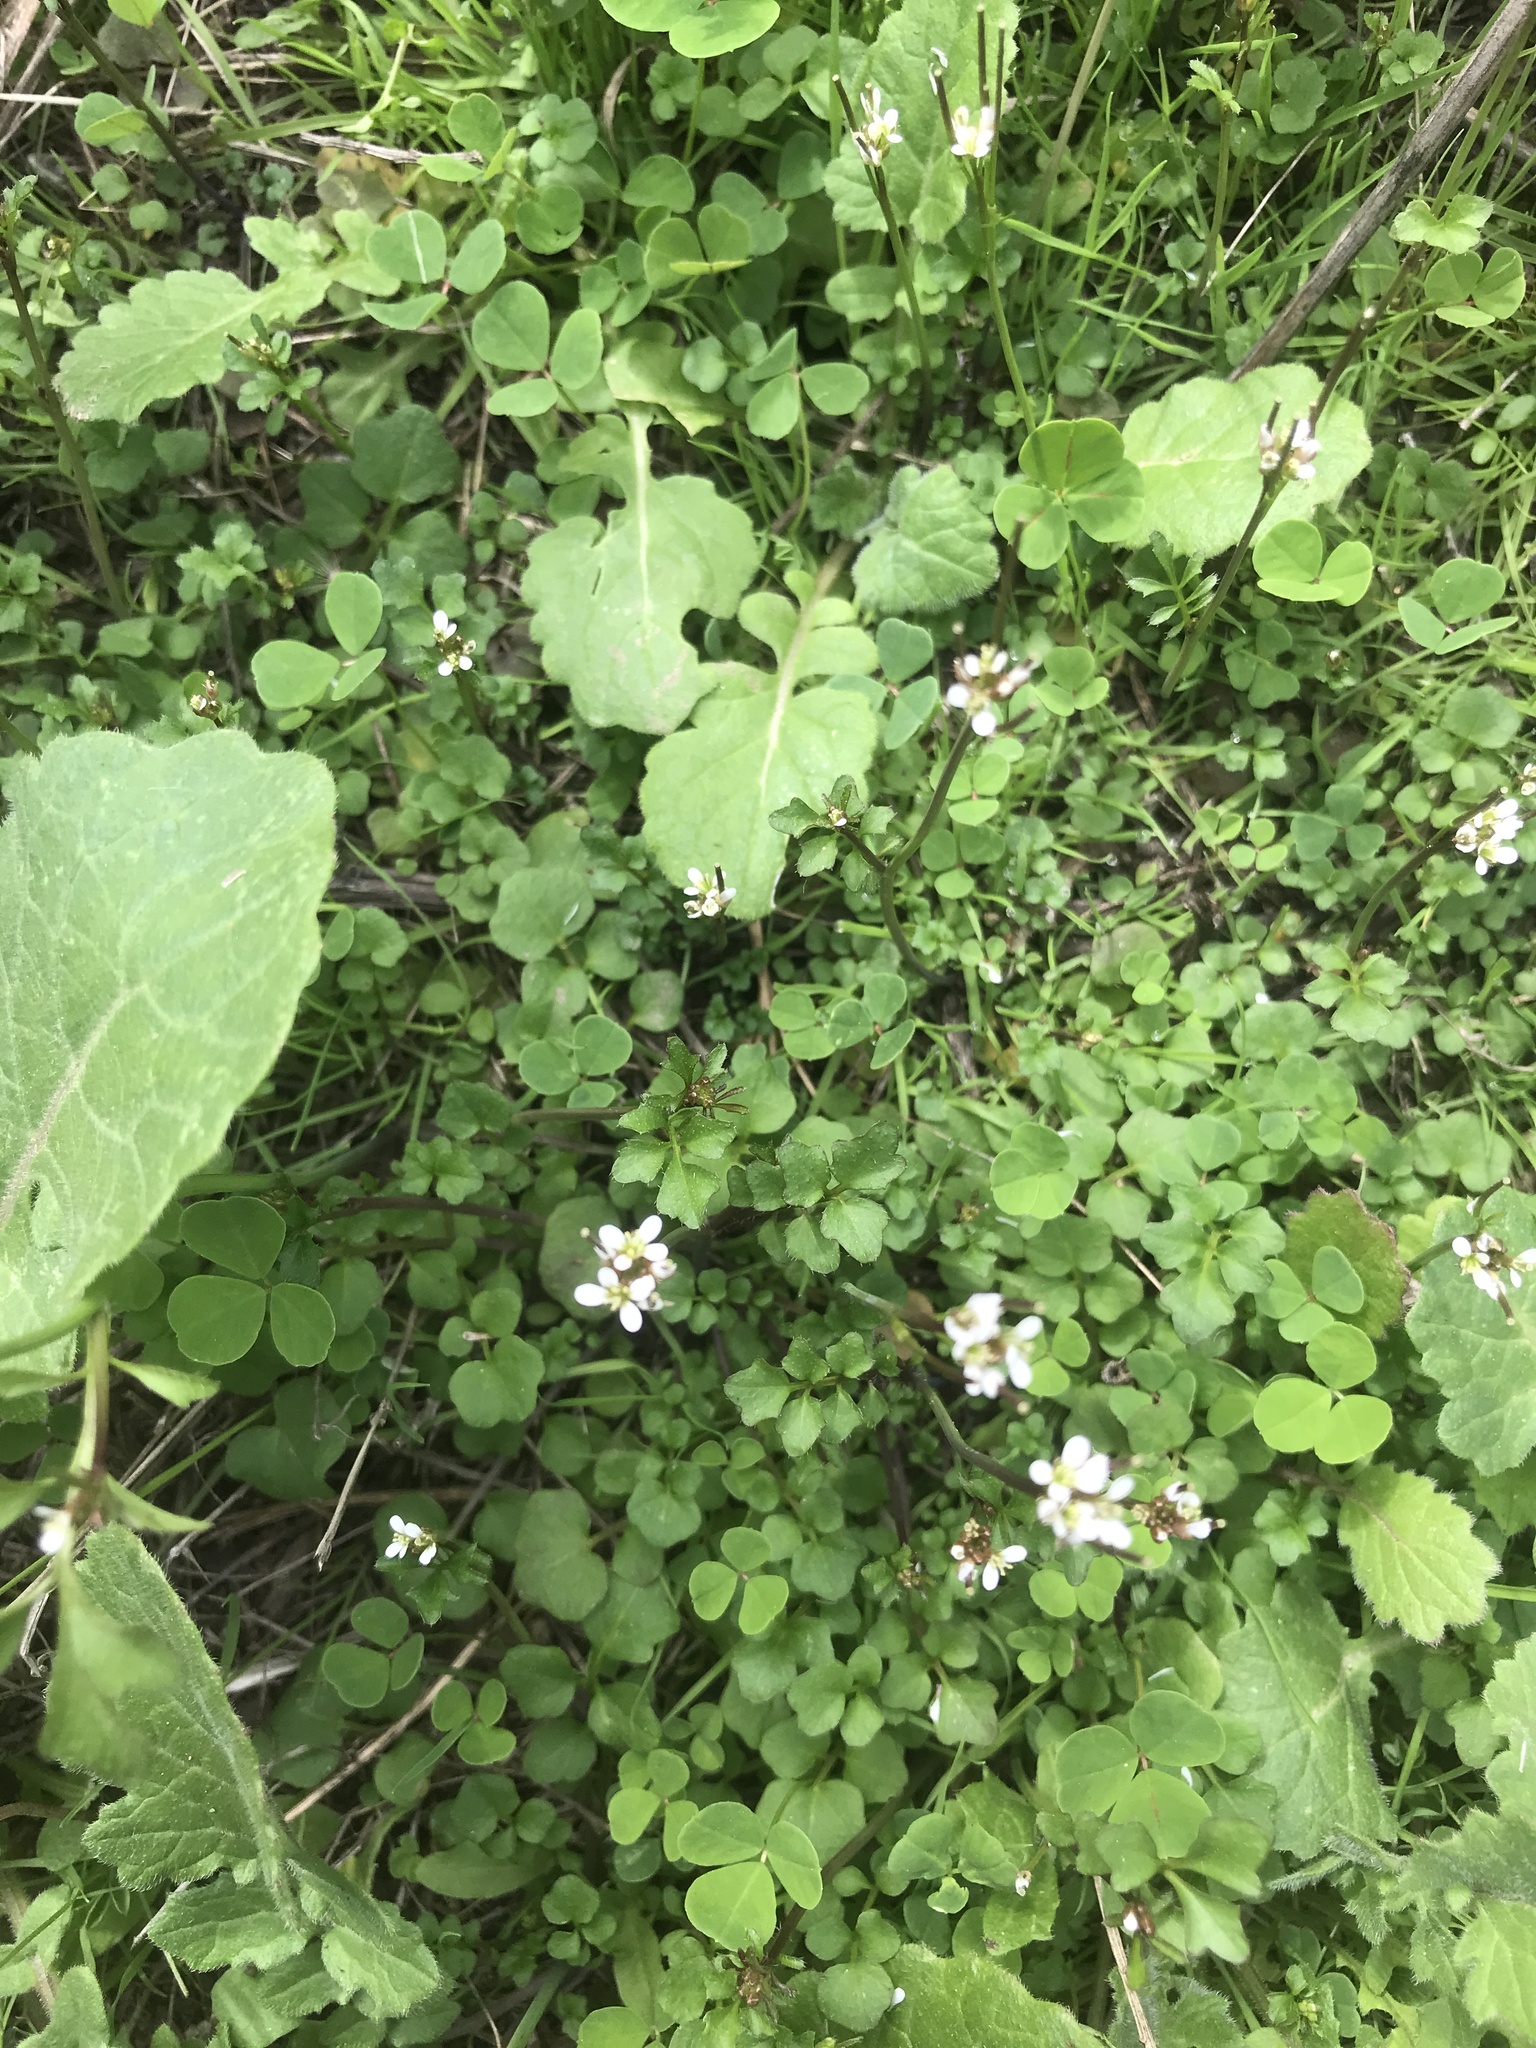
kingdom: Plantae
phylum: Tracheophyta
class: Magnoliopsida
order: Brassicales
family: Brassicaceae
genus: Cardamine
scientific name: Cardamine hirsuta
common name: Hairy bittercress
